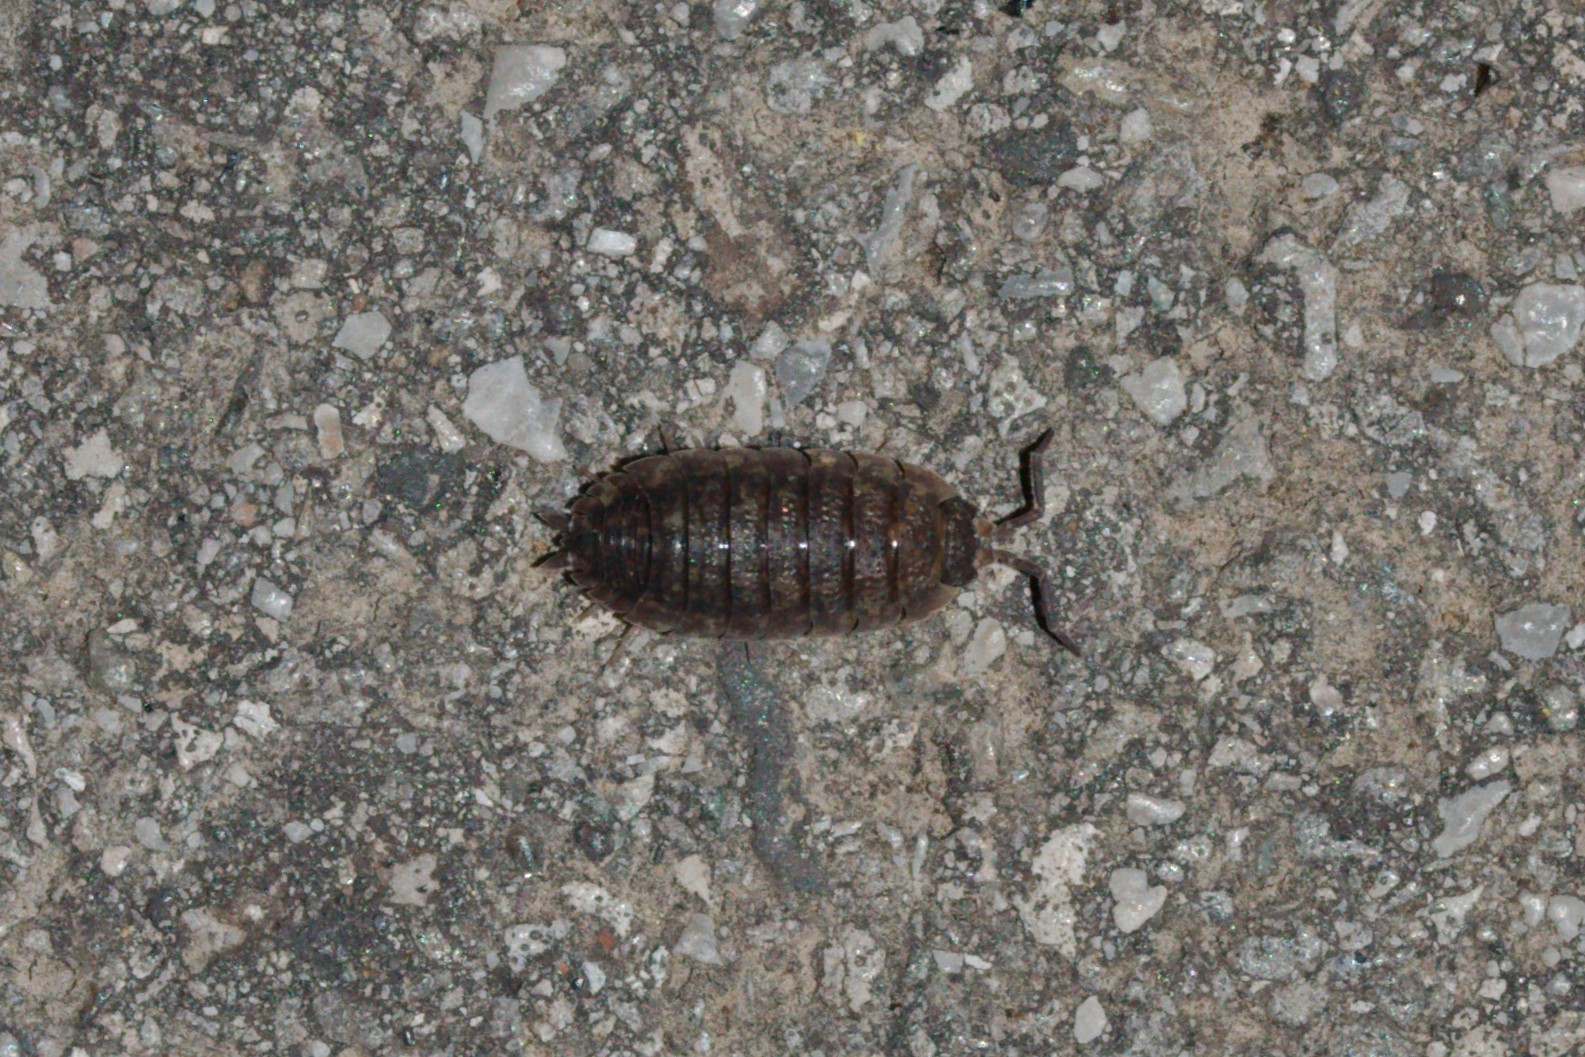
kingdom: Animalia
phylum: Arthropoda
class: Malacostraca
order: Isopoda
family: Porcellionidae
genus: Porcellio
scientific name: Porcellio scaber
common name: Common rough woodlouse
